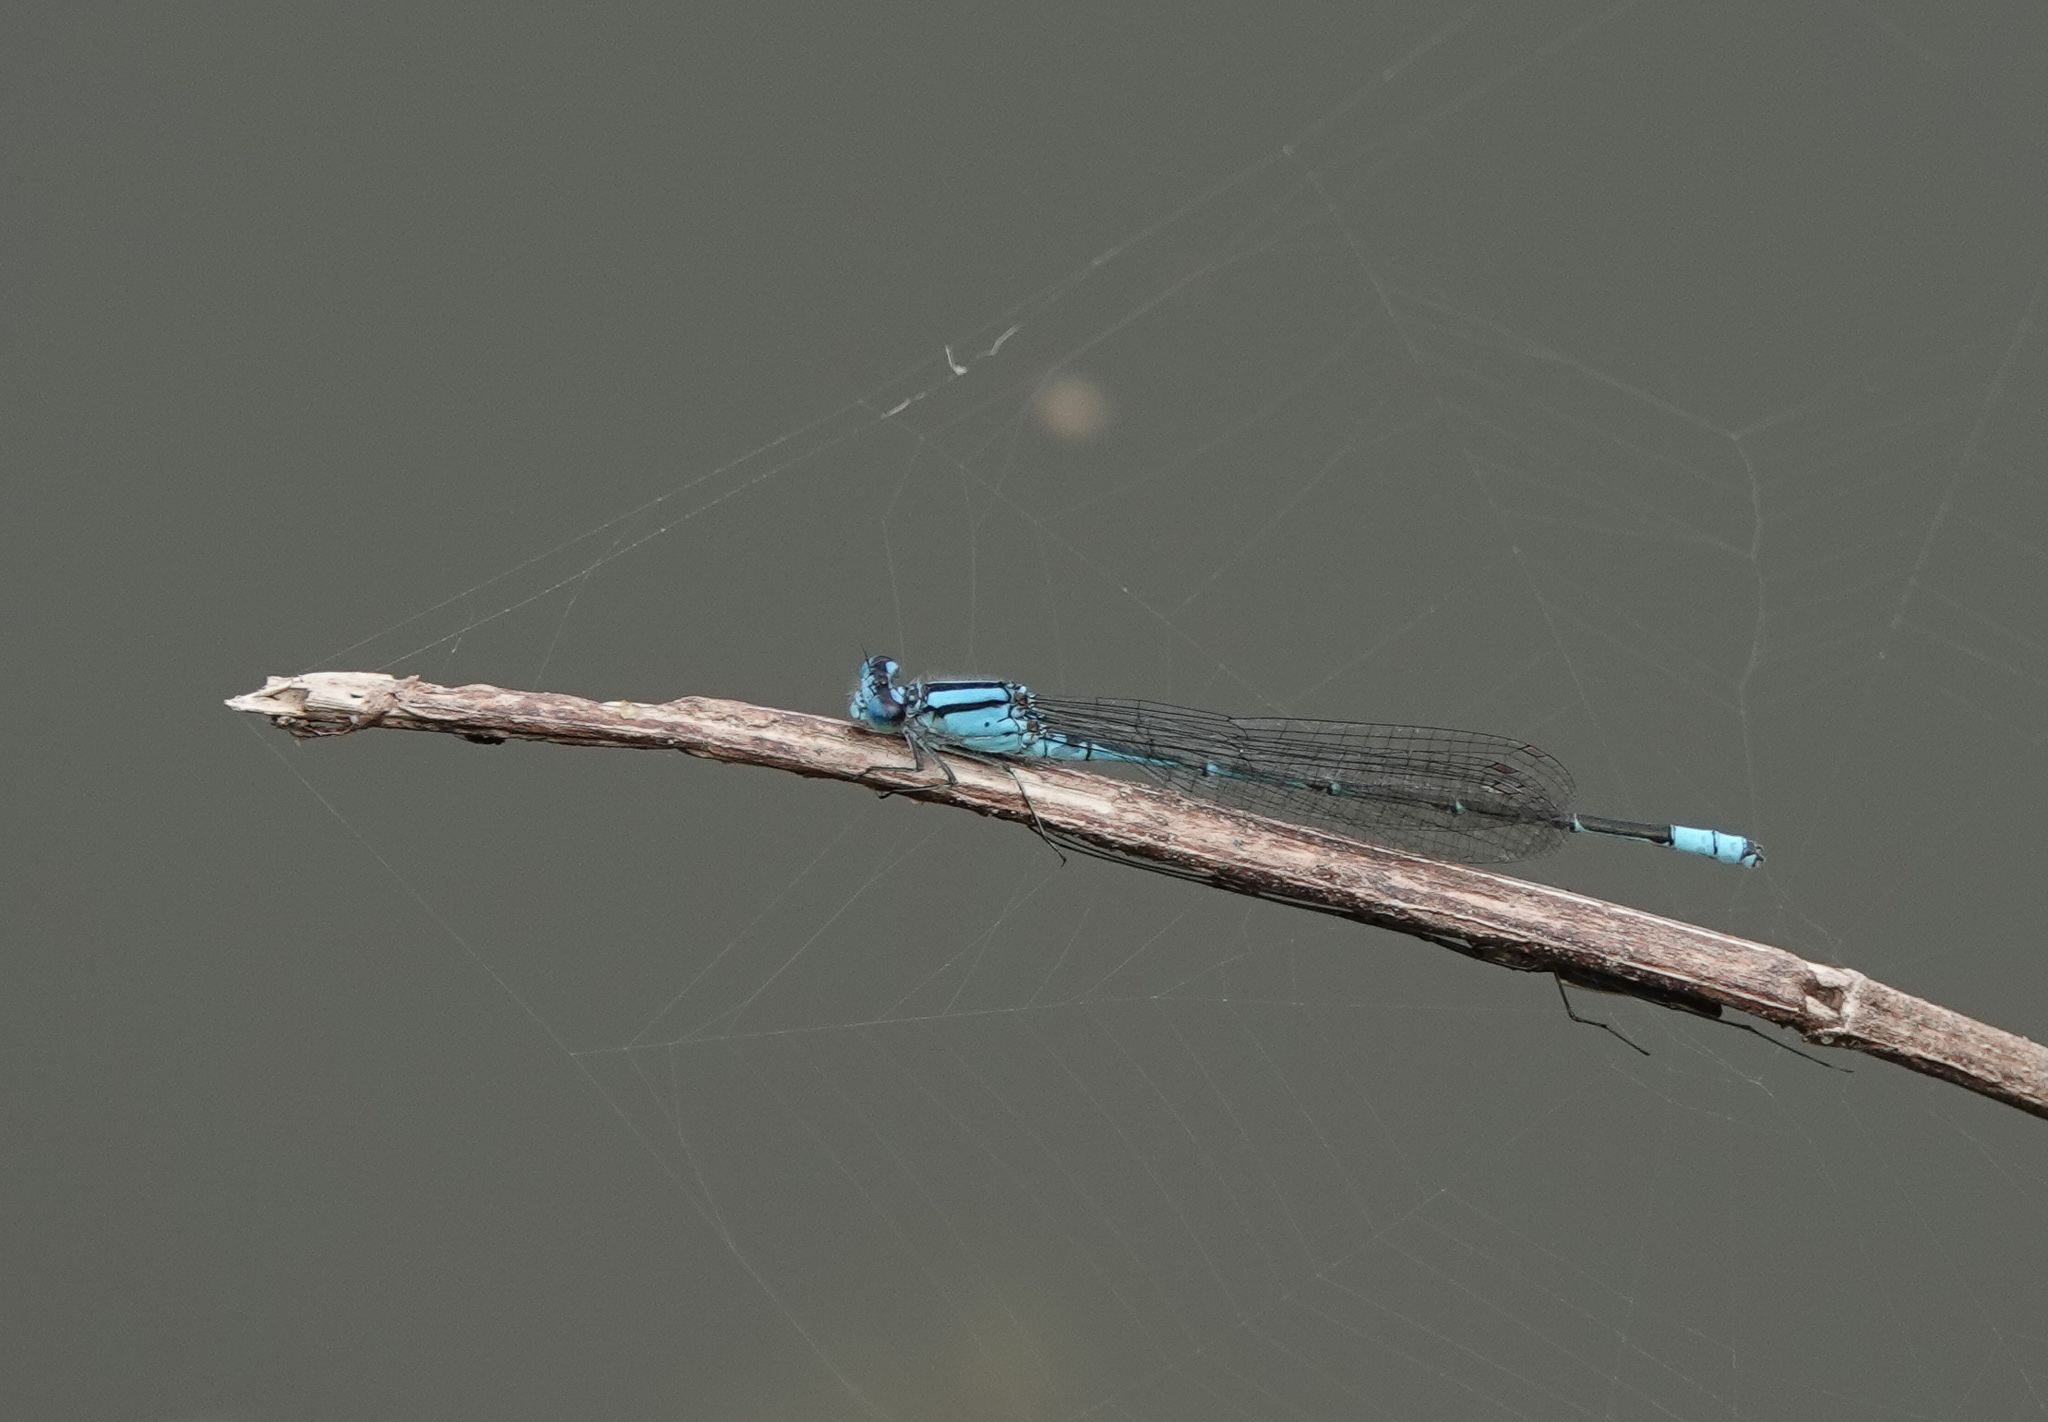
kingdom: Animalia
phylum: Arthropoda
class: Insecta
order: Odonata
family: Coenagrionidae
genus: Pseudagrion
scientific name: Pseudagrion australasiae
